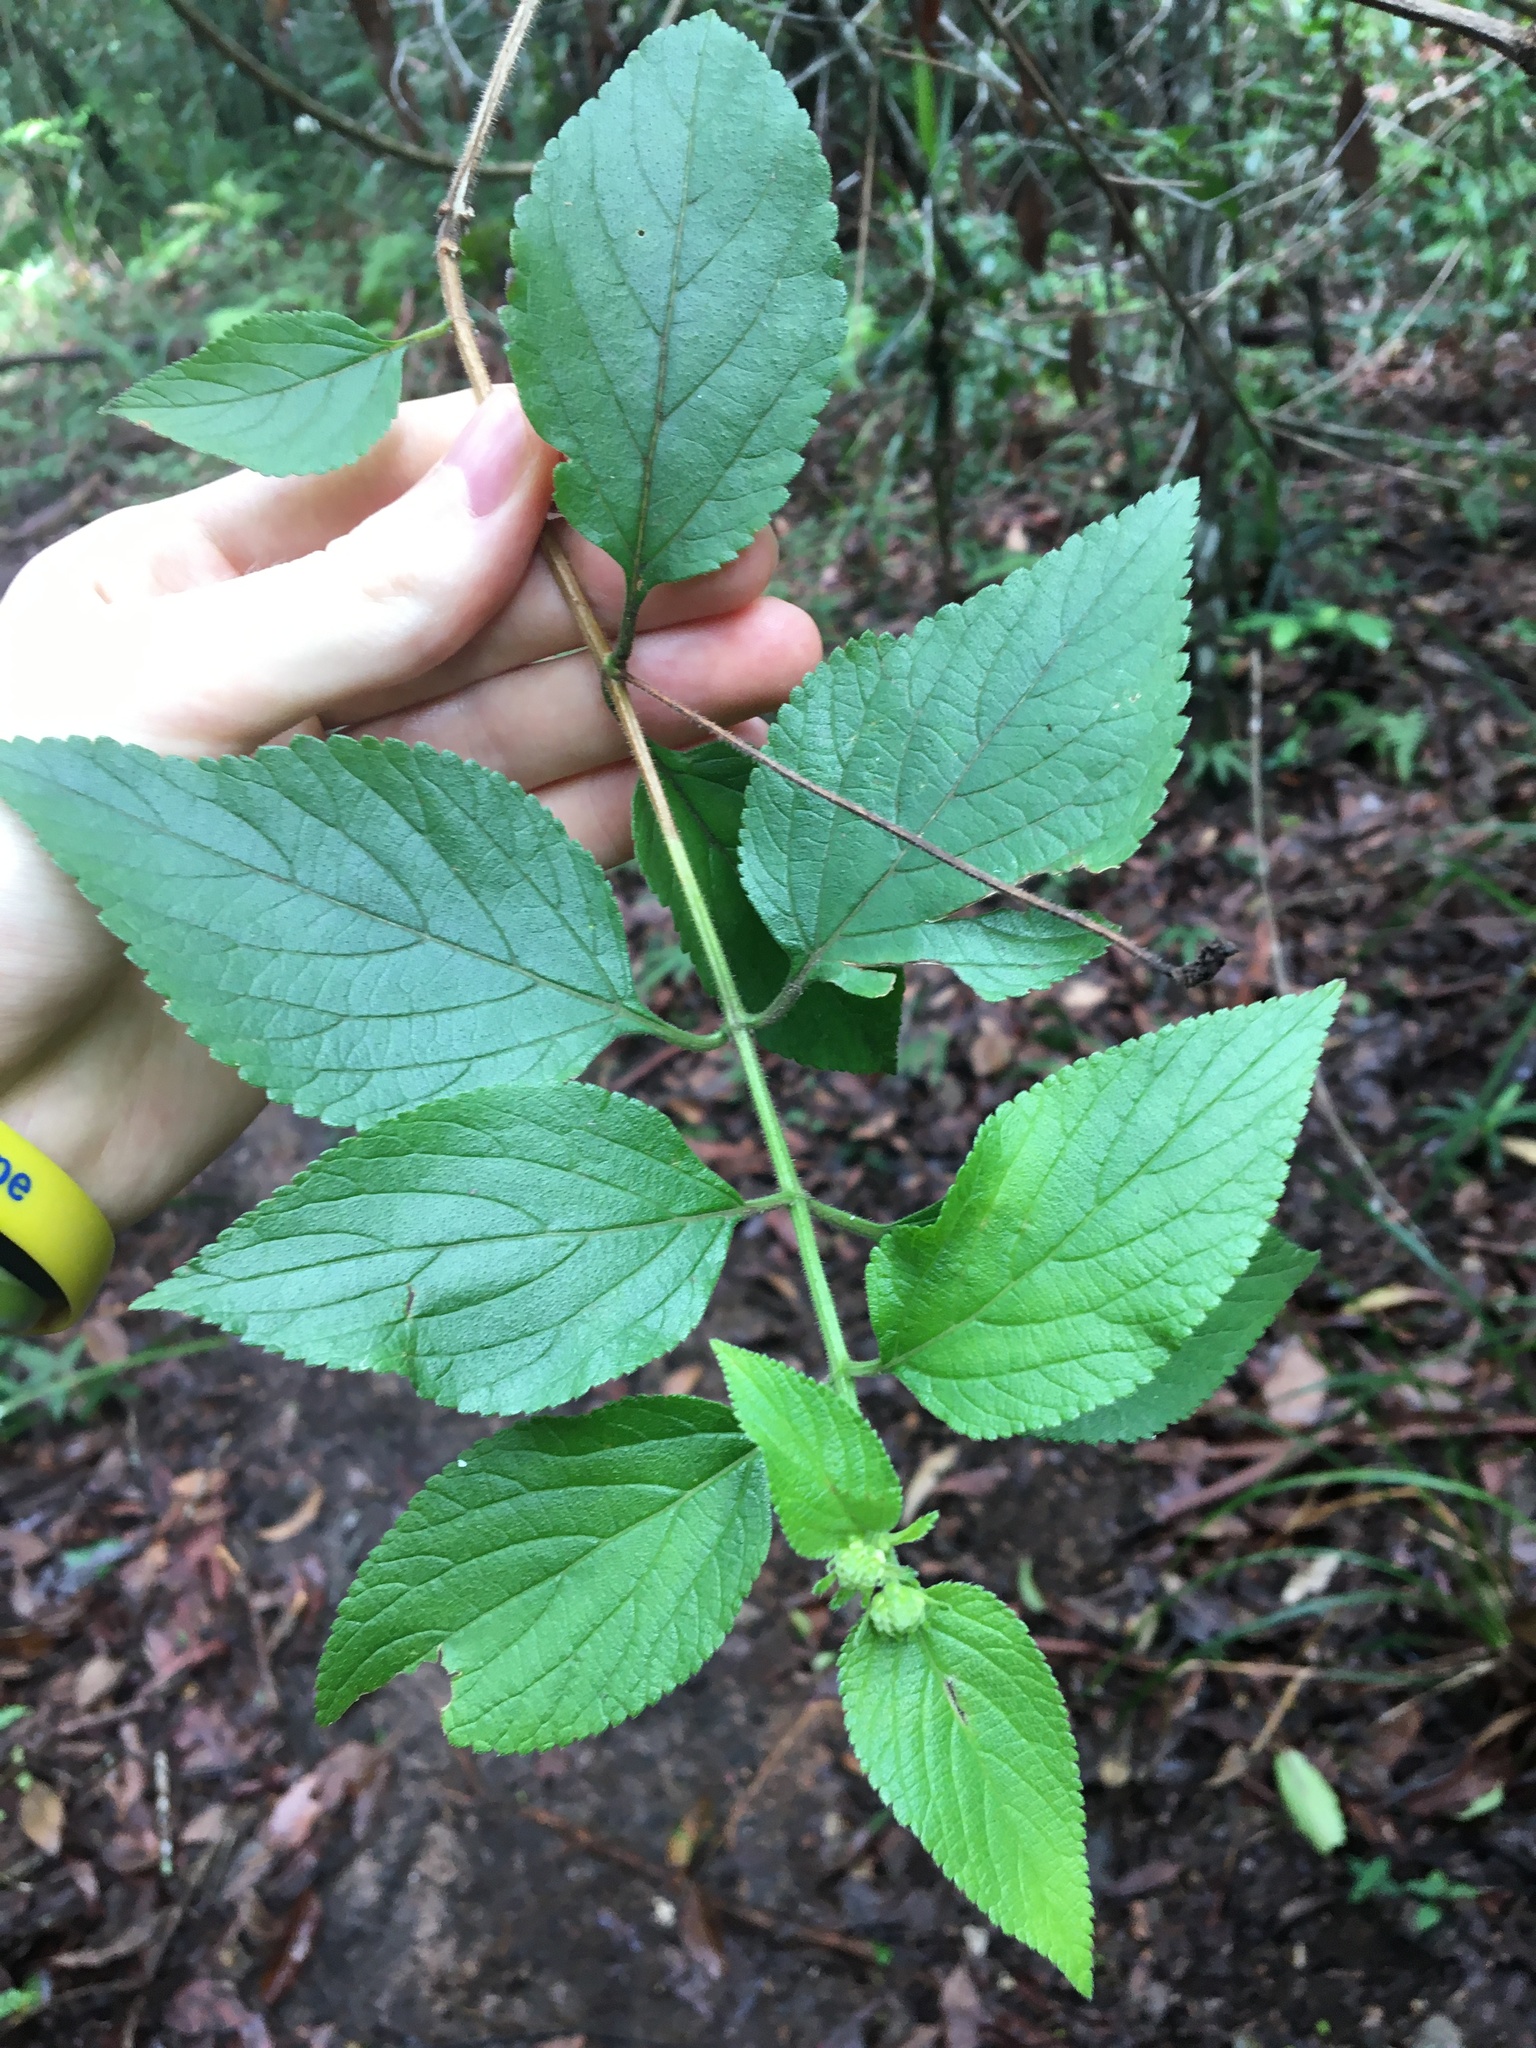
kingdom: Plantae
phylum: Tracheophyta
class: Magnoliopsida
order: Lamiales
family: Verbenaceae
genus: Lantana
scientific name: Lantana camara
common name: Lantana
